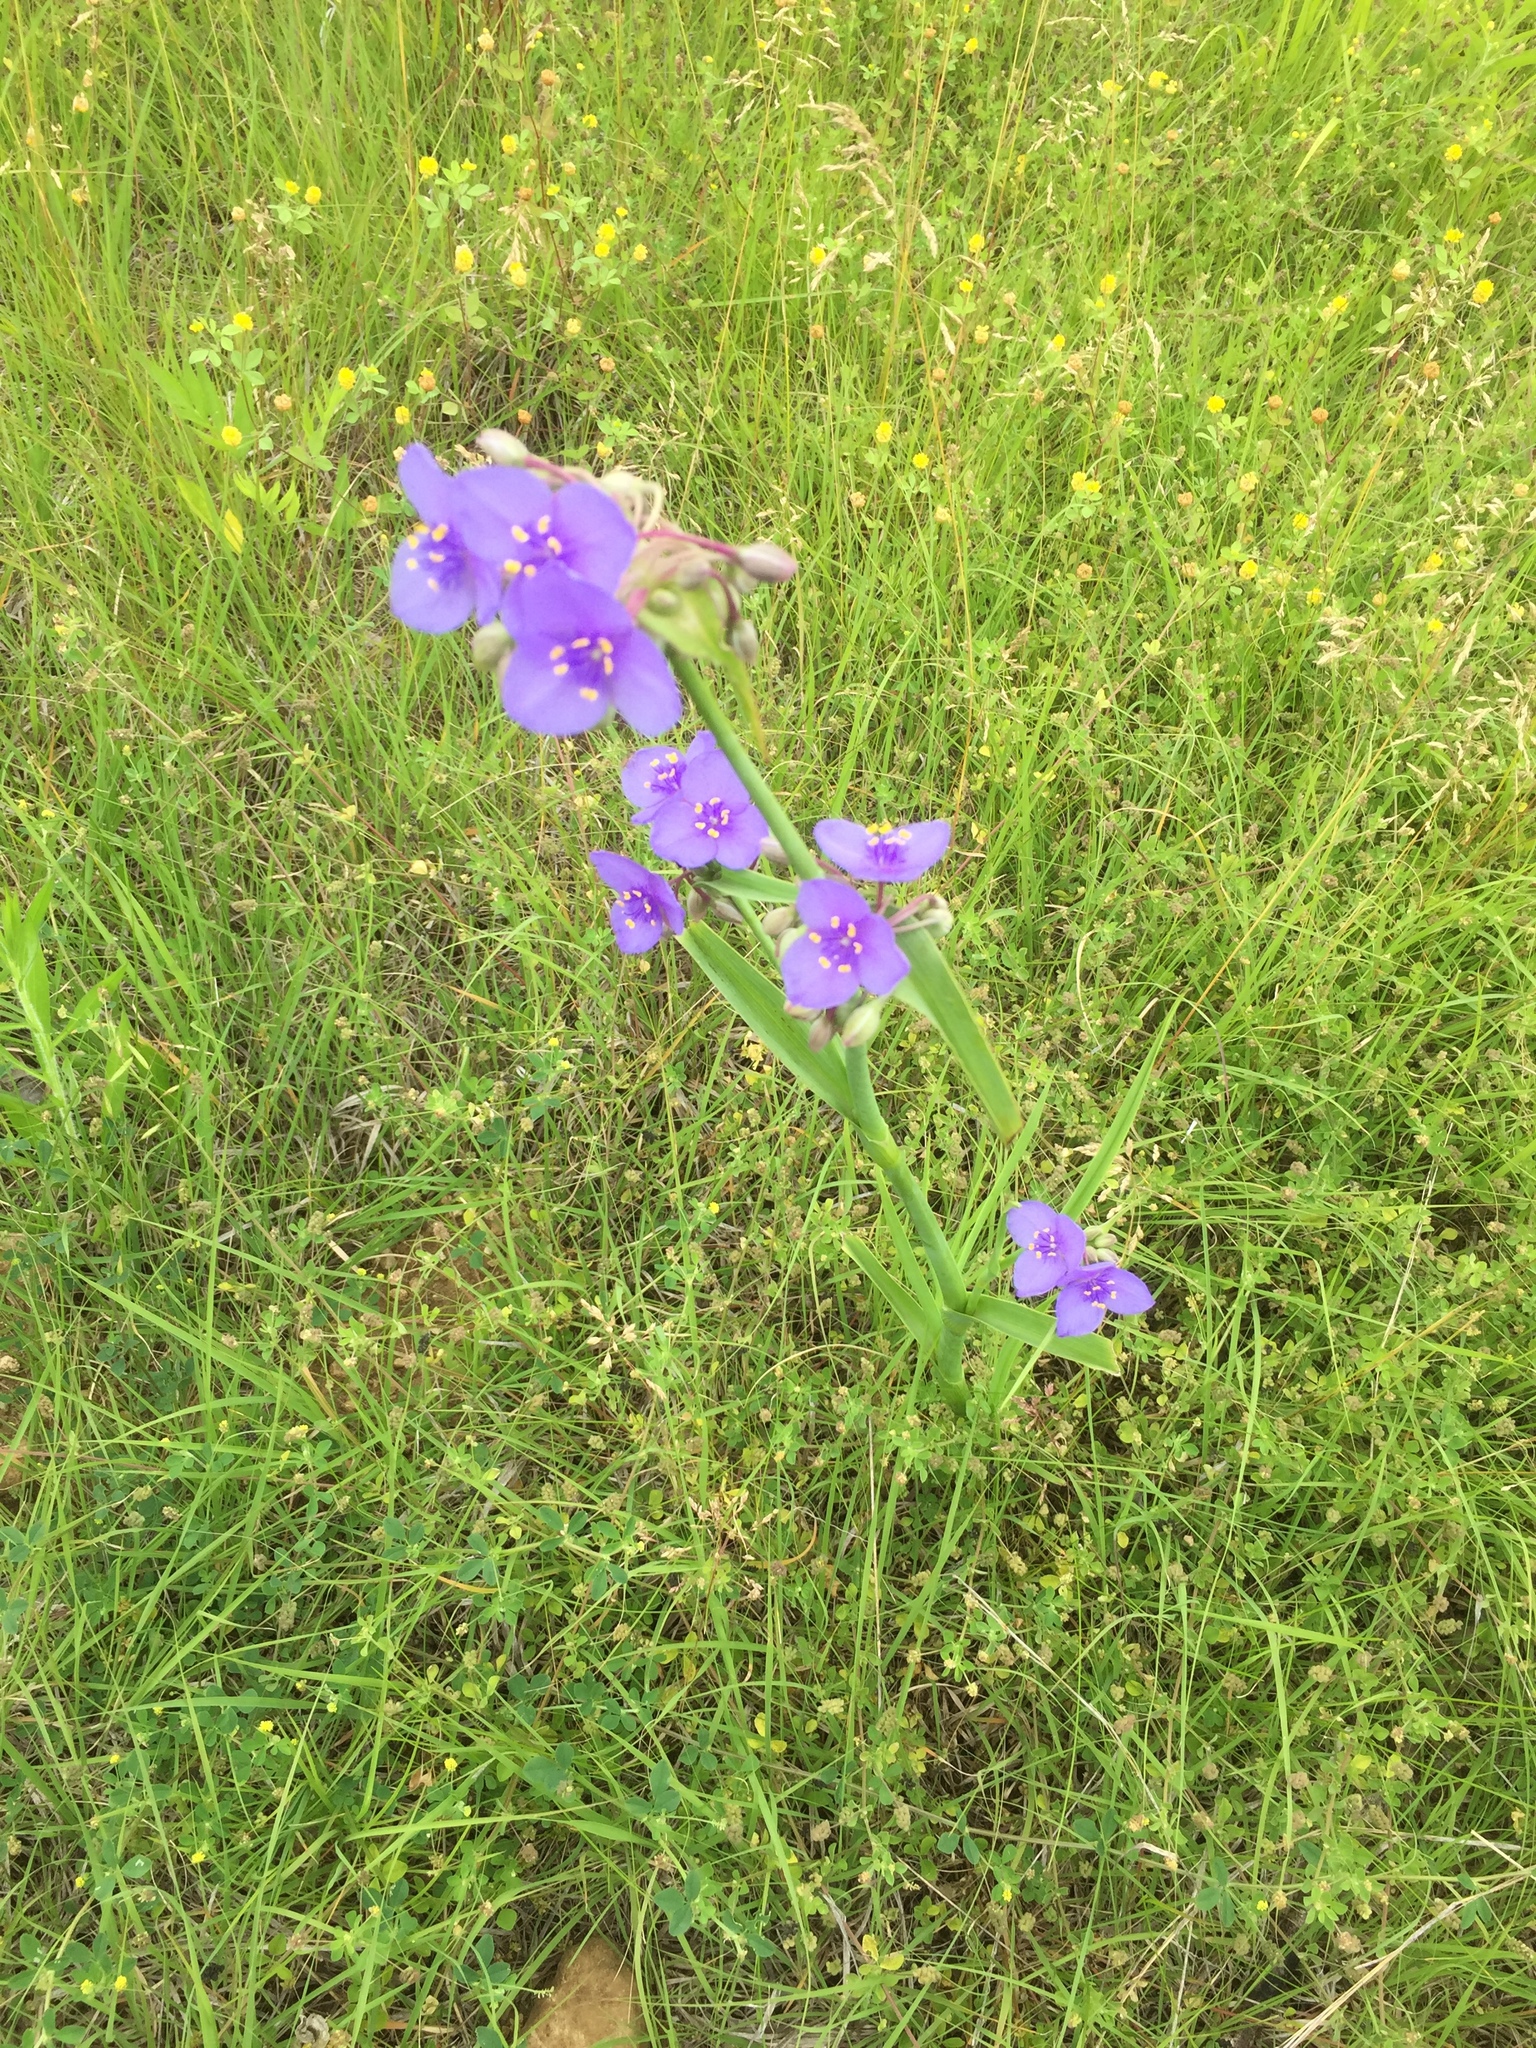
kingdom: Plantae
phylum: Tracheophyta
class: Liliopsida
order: Commelinales
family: Commelinaceae
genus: Tradescantia
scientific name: Tradescantia ohiensis
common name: Ohio spiderwort
